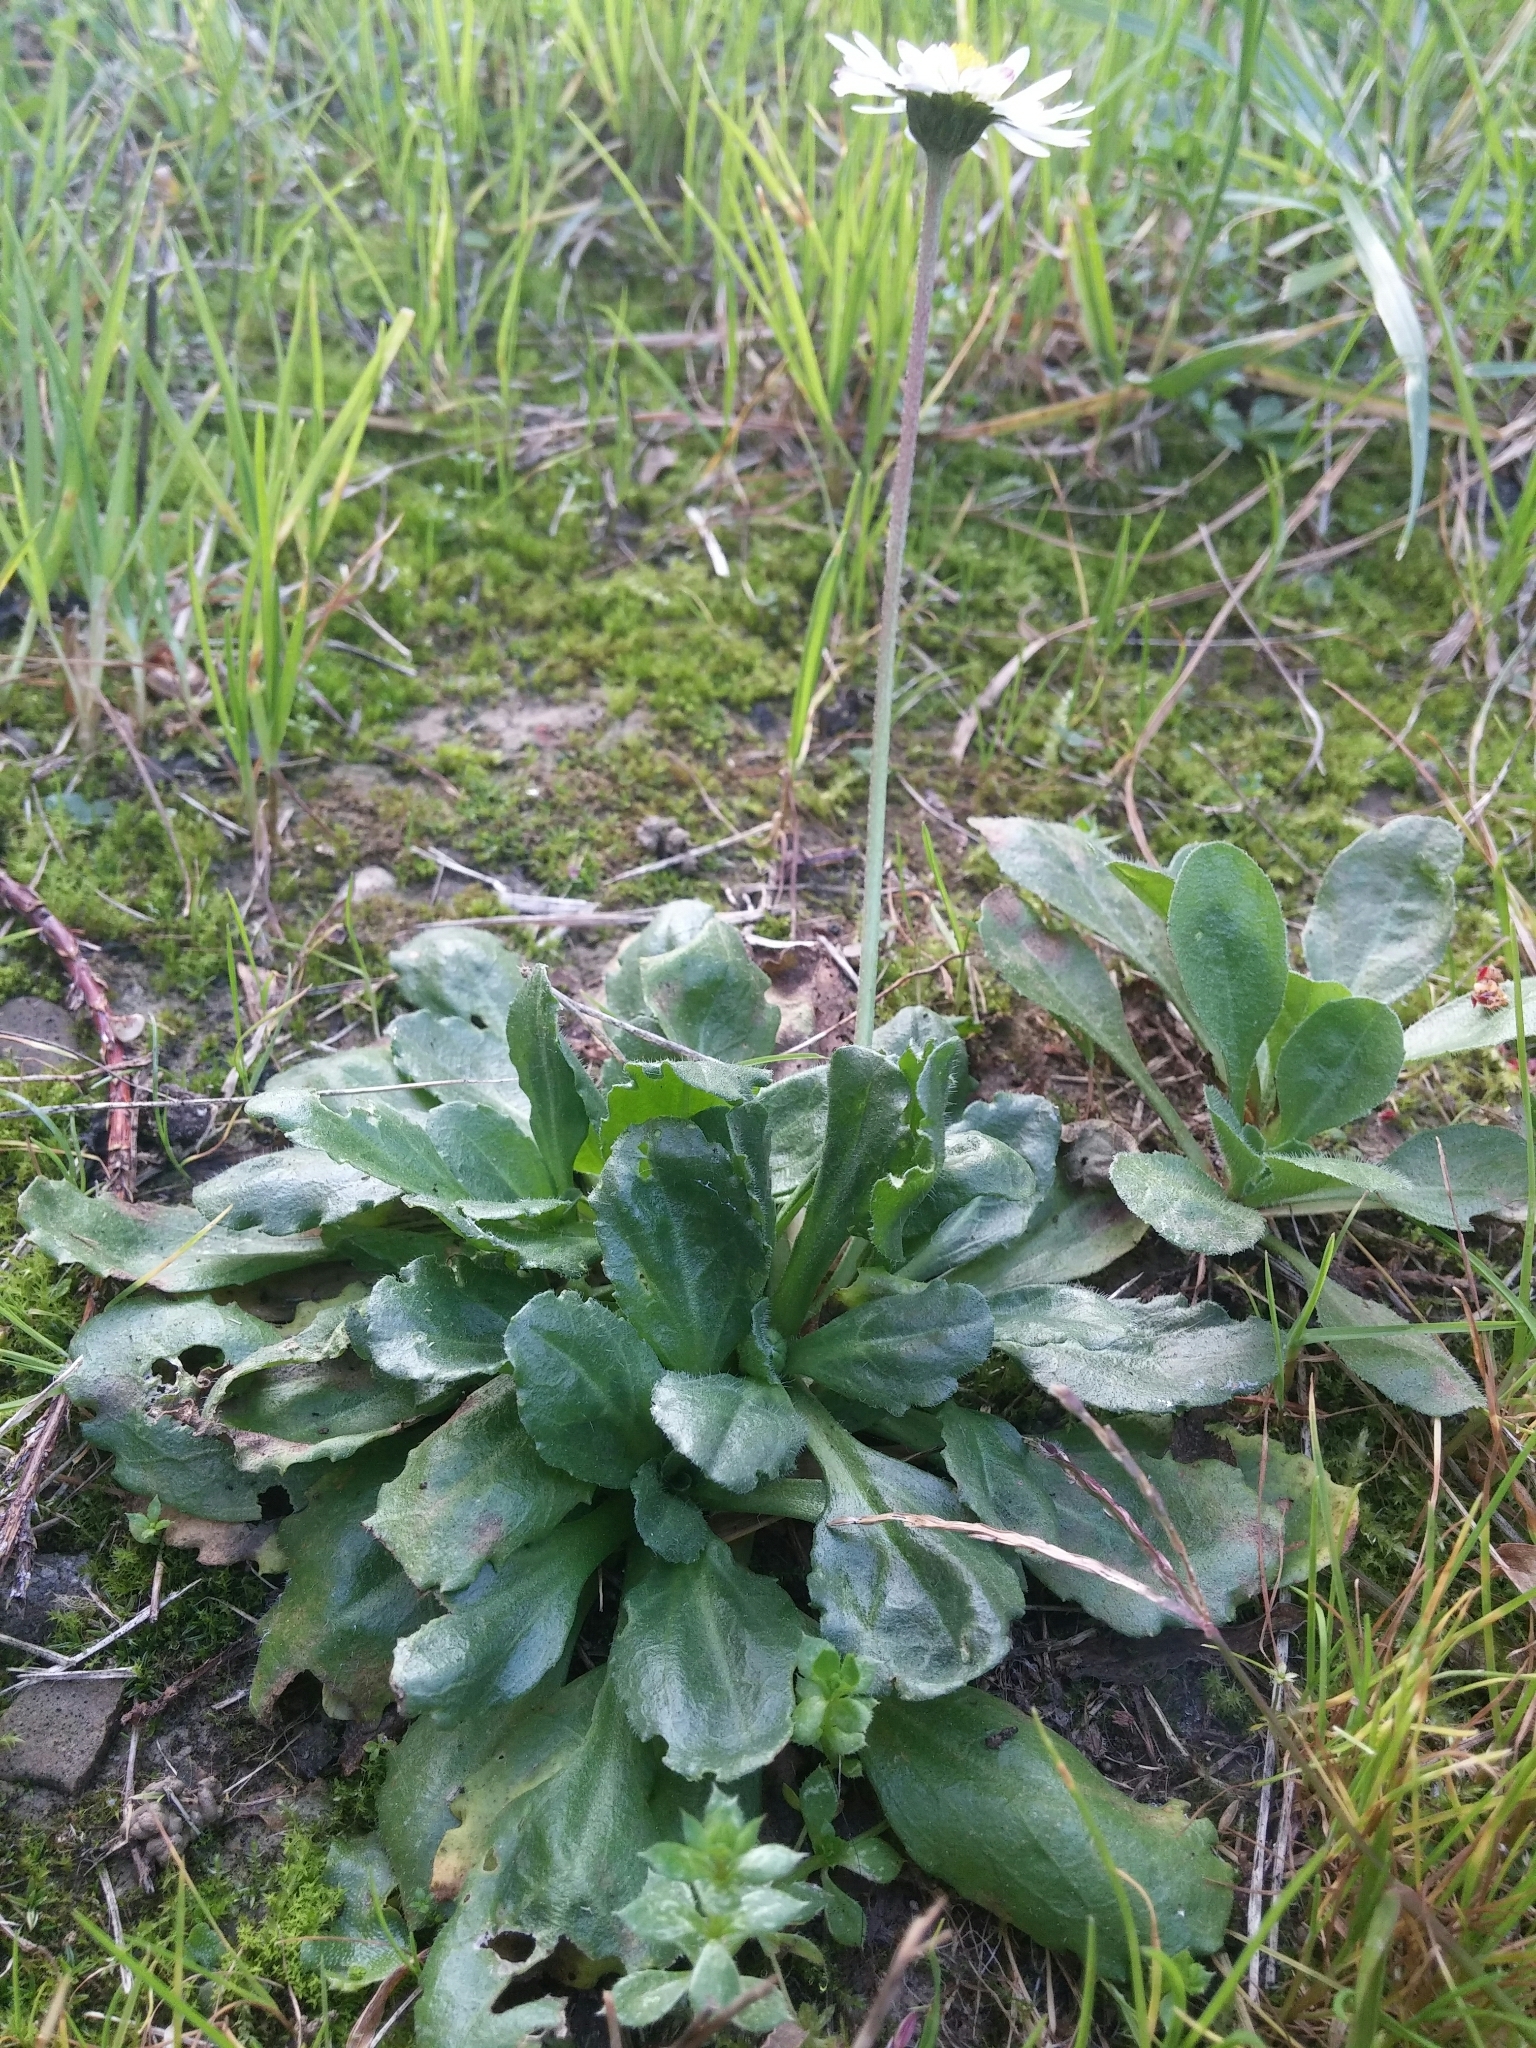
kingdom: Plantae
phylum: Tracheophyta
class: Magnoliopsida
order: Asterales
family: Asteraceae
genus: Bellis
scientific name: Bellis perennis
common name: Lawndaisy
